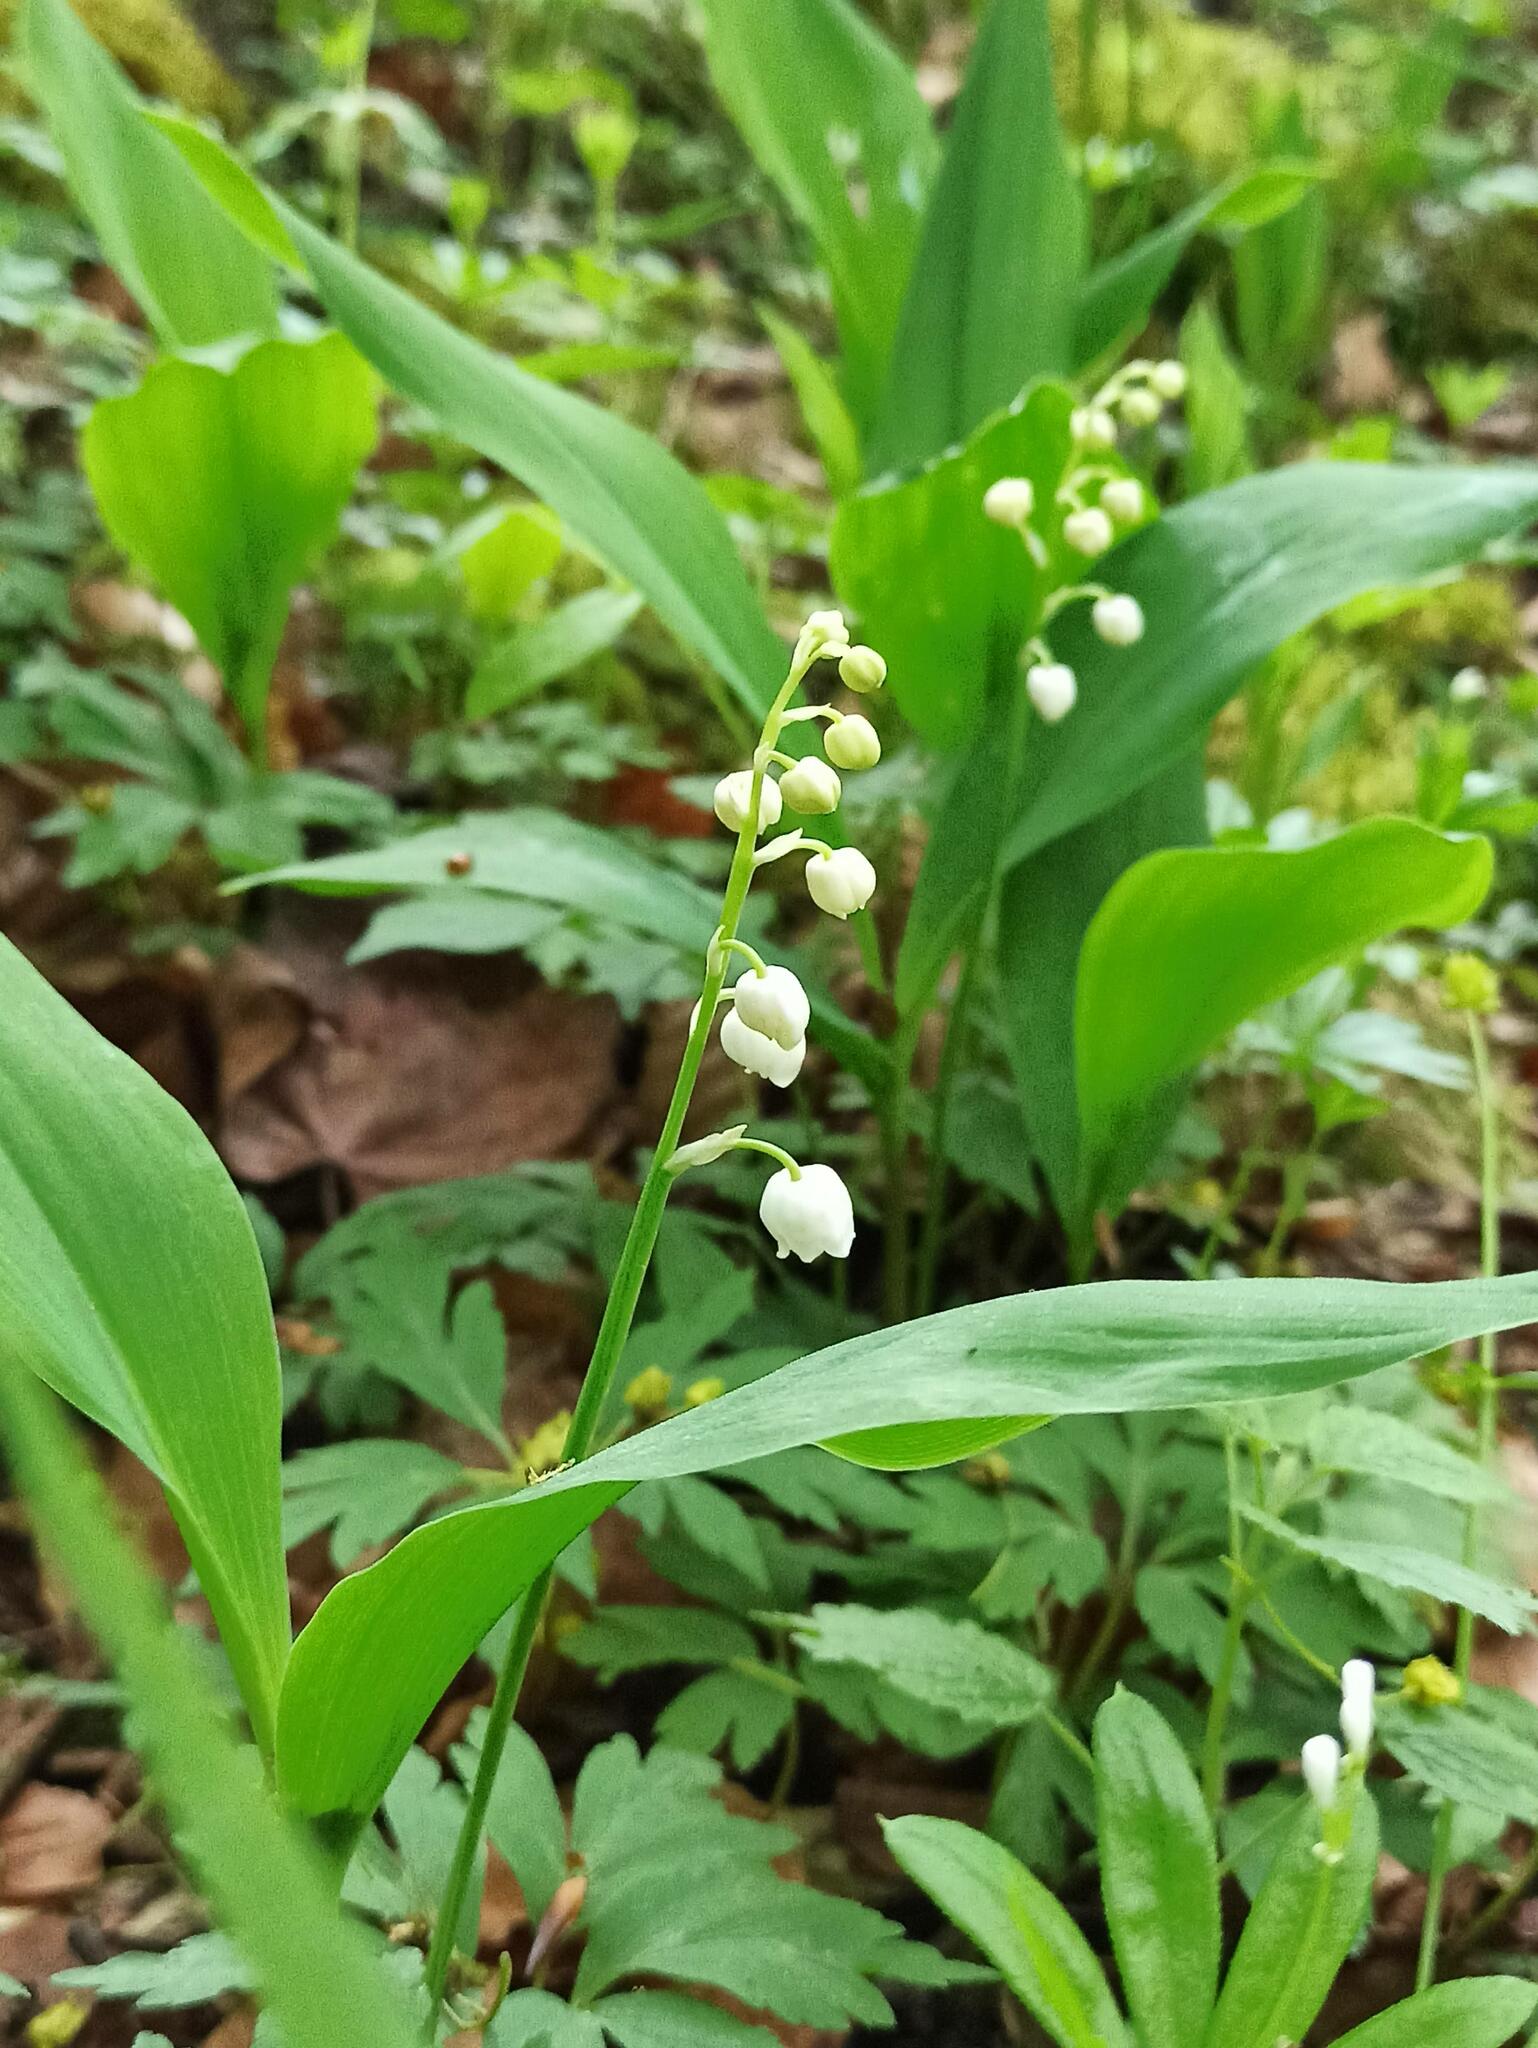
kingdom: Plantae
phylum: Tracheophyta
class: Liliopsida
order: Asparagales
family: Asparagaceae
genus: Convallaria
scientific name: Convallaria majalis
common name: Lily-of-the-valley
